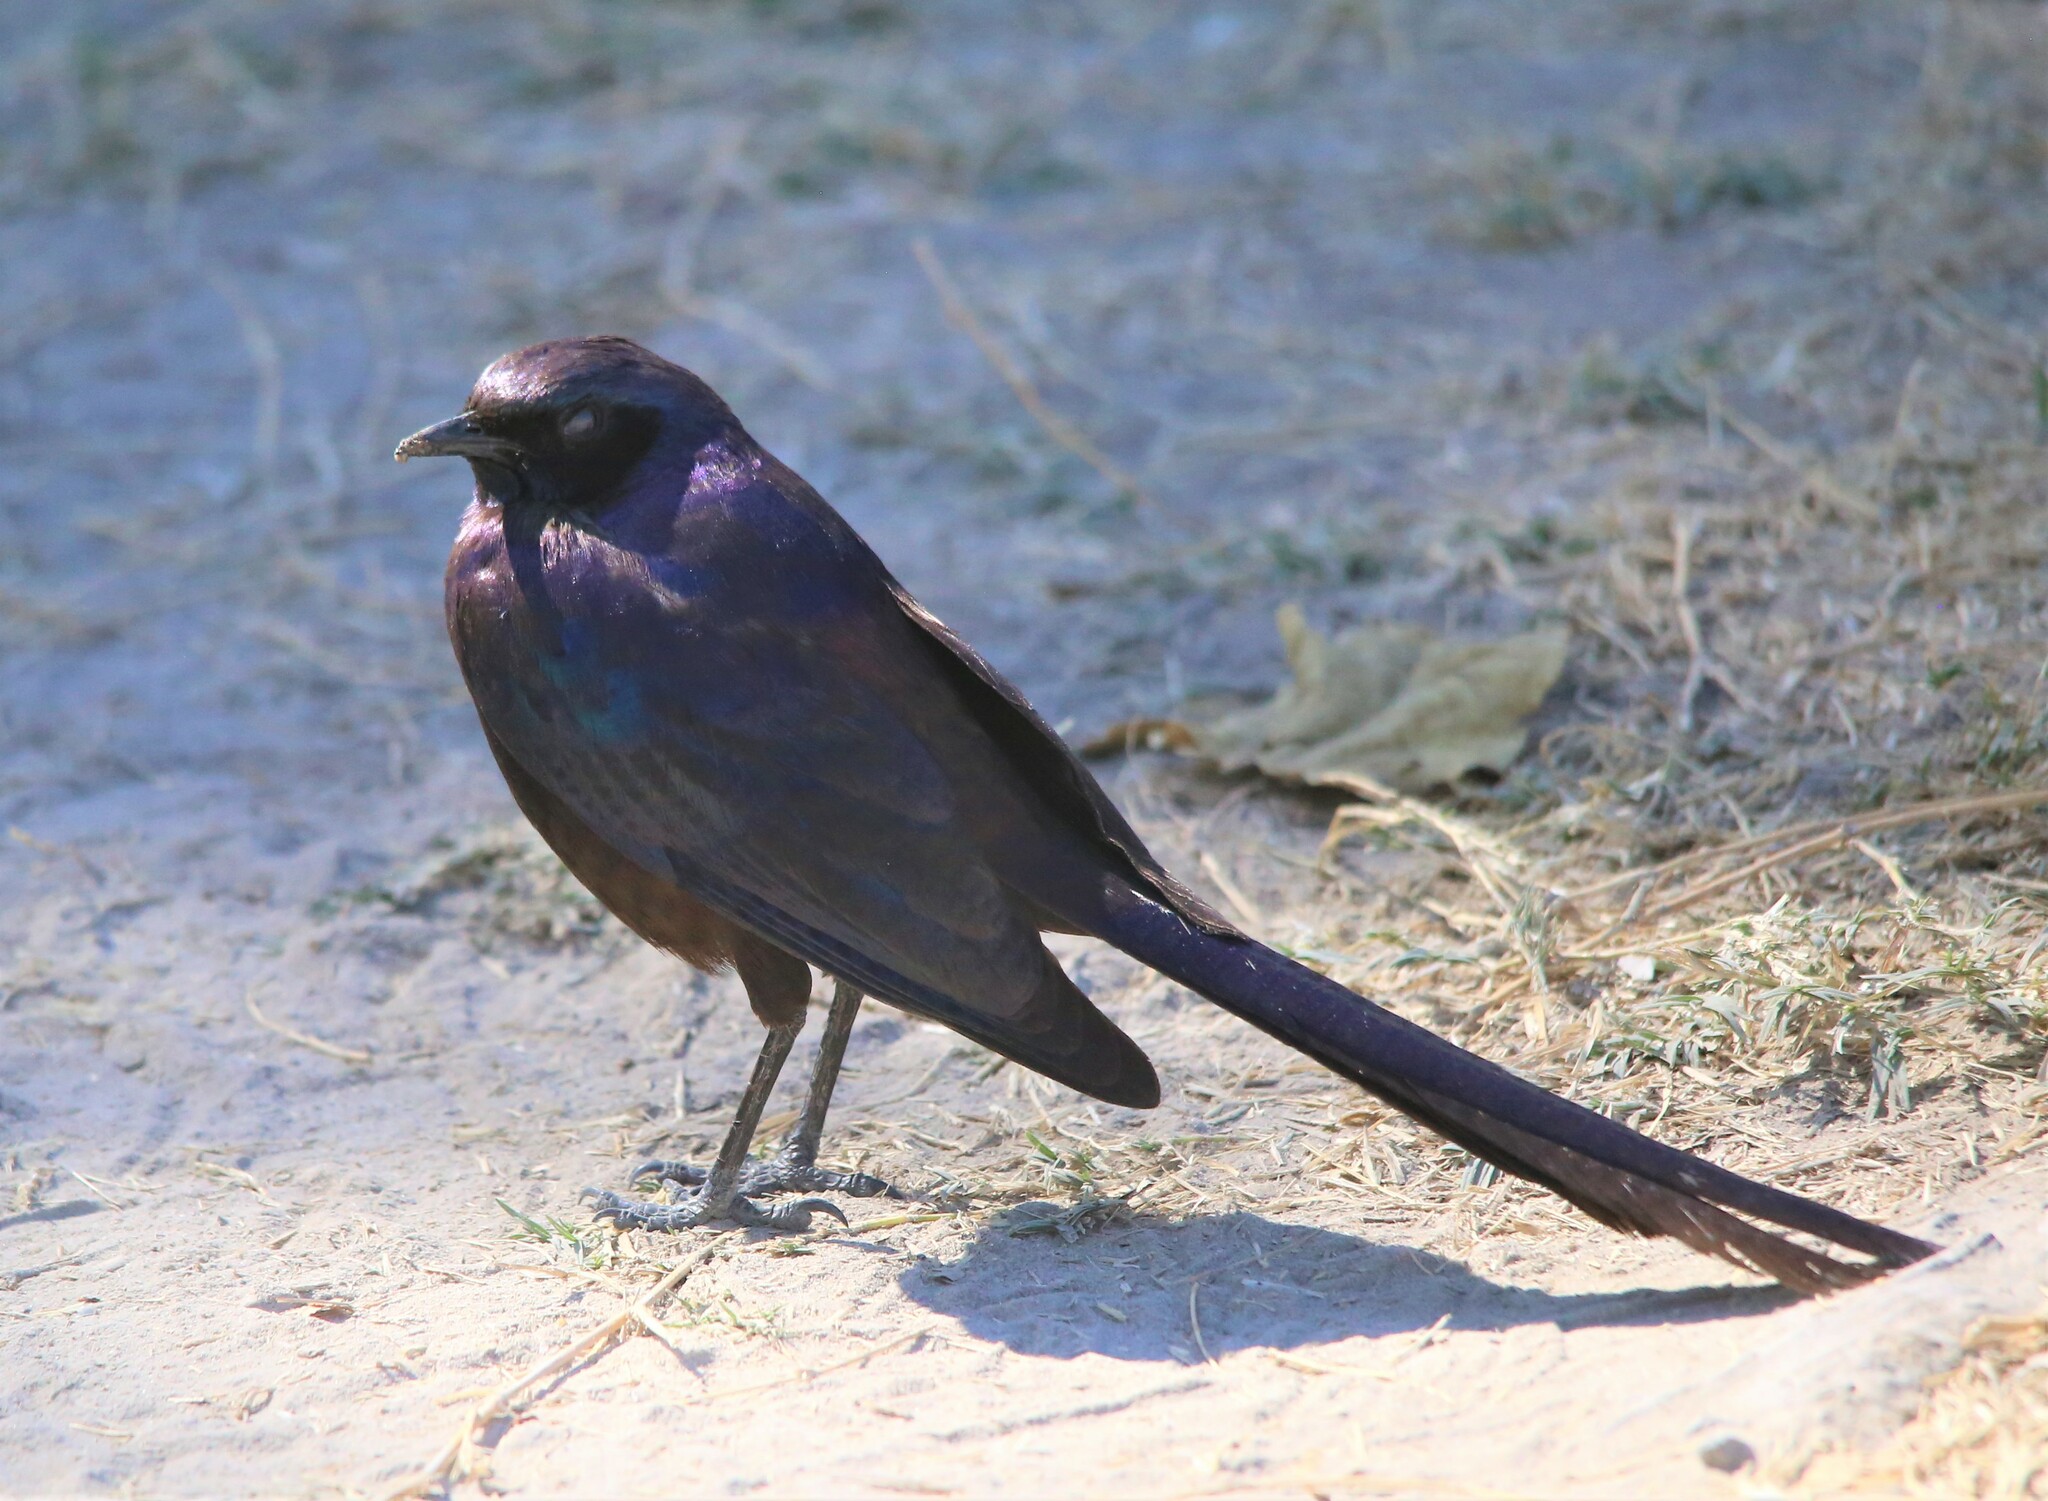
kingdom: Animalia
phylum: Chordata
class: Aves
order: Passeriformes
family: Sturnidae
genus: Lamprotornis
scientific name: Lamprotornis mevesii
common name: Meves's starling
